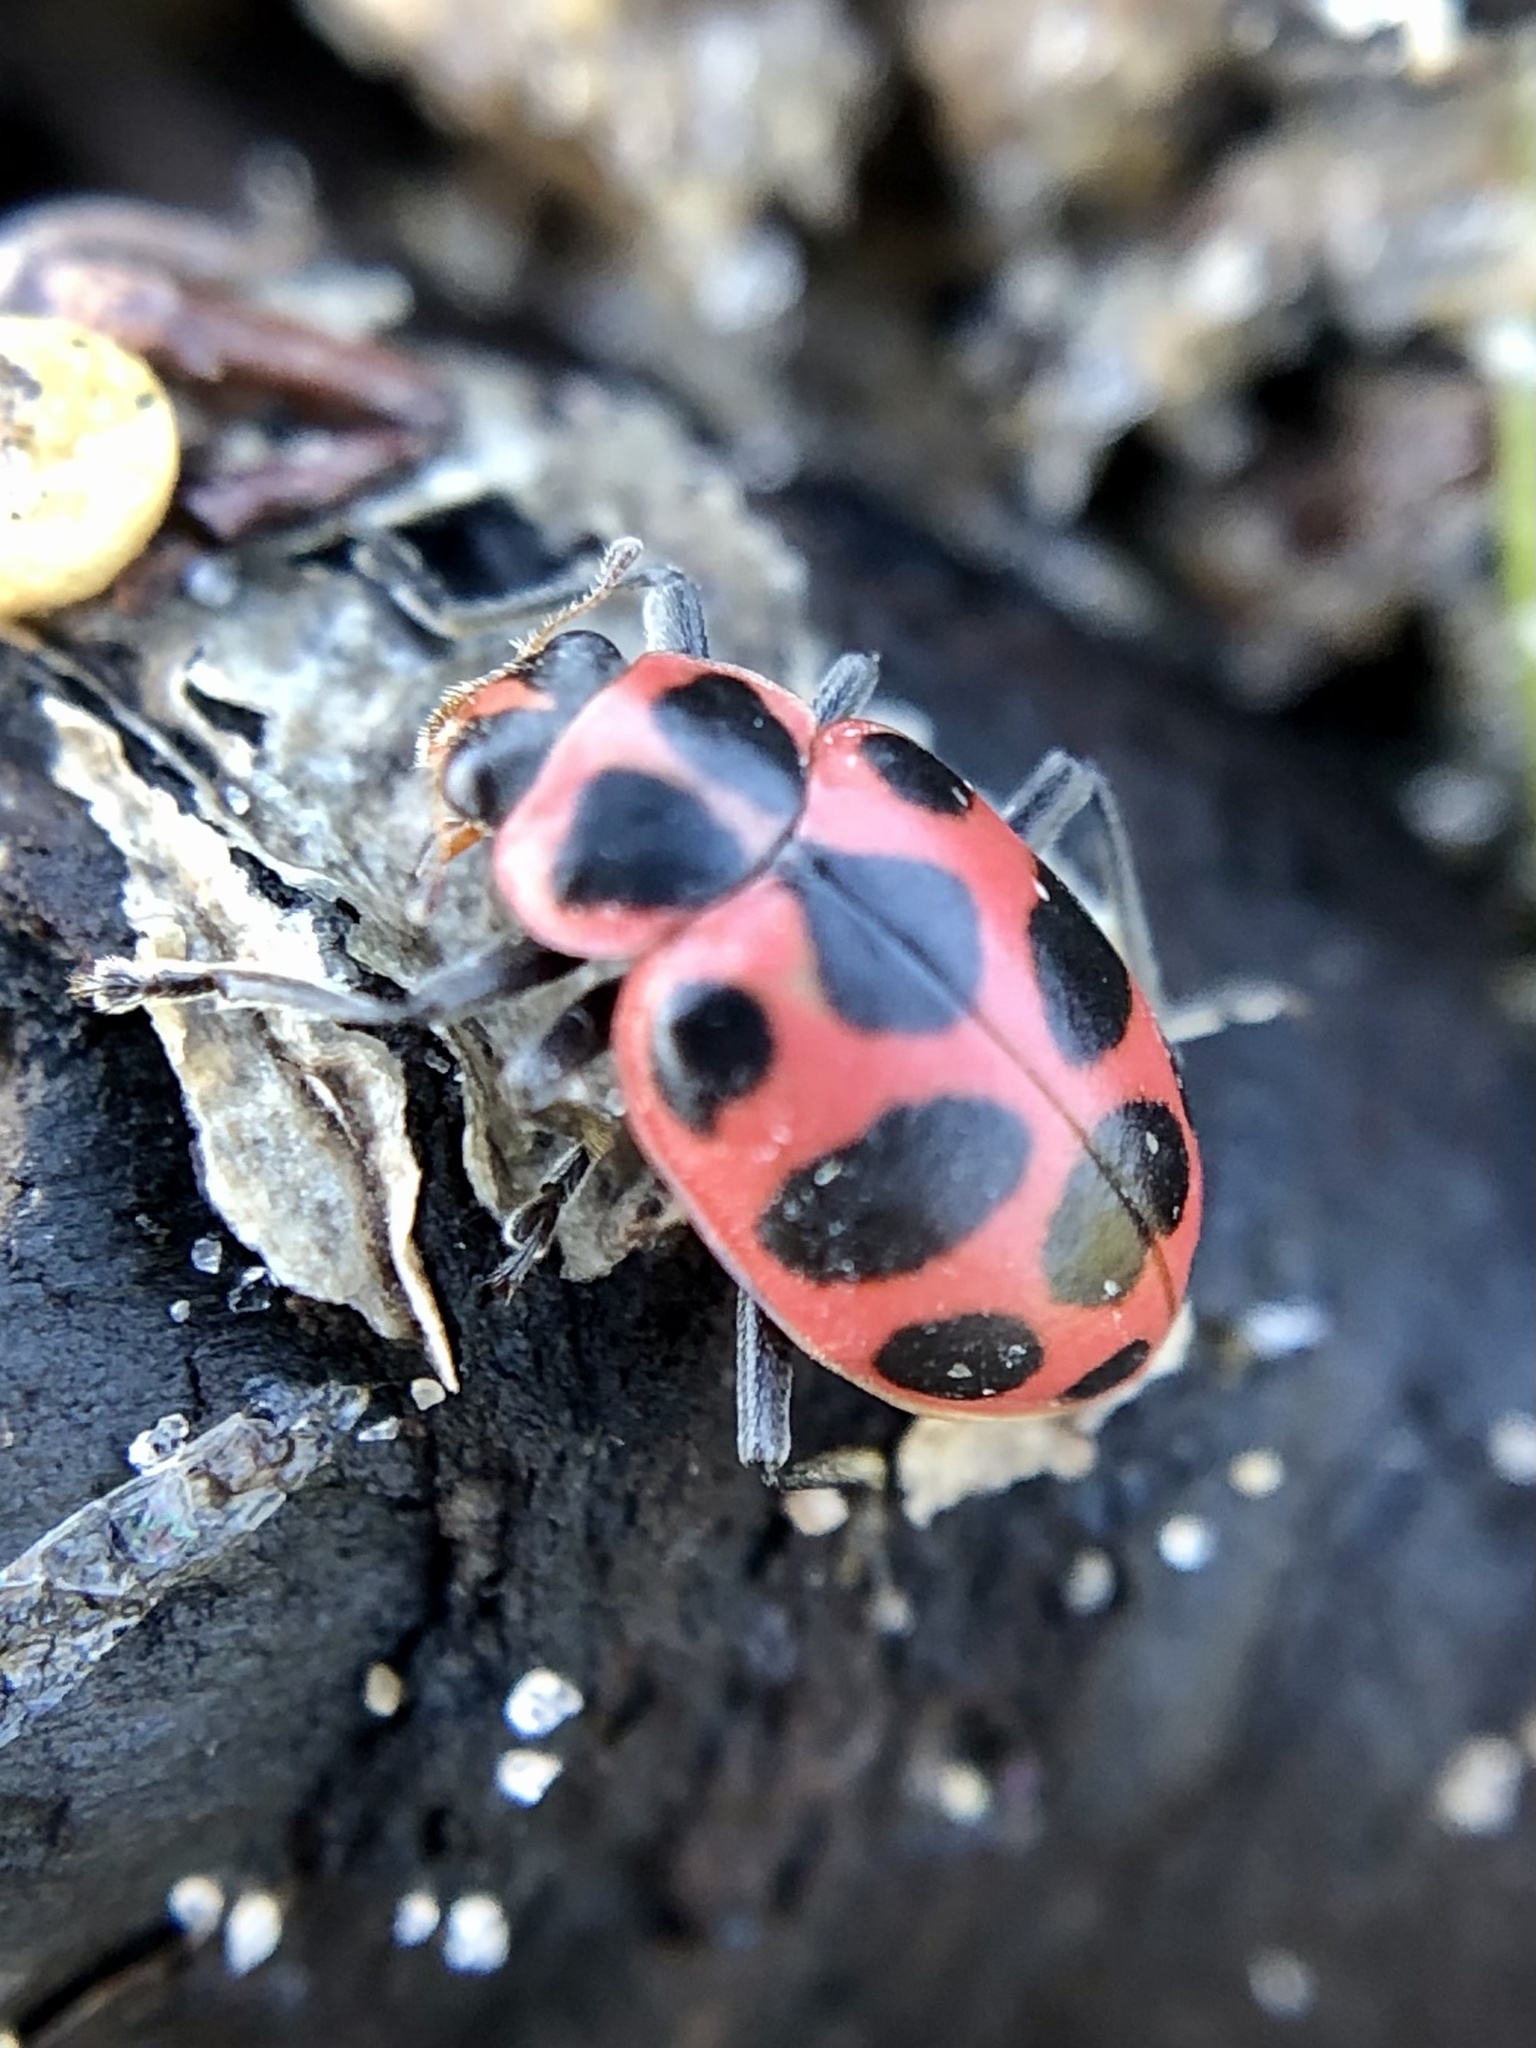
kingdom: Animalia
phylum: Arthropoda
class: Insecta
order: Coleoptera
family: Coccinellidae
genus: Coleomegilla
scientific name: Coleomegilla maculata
